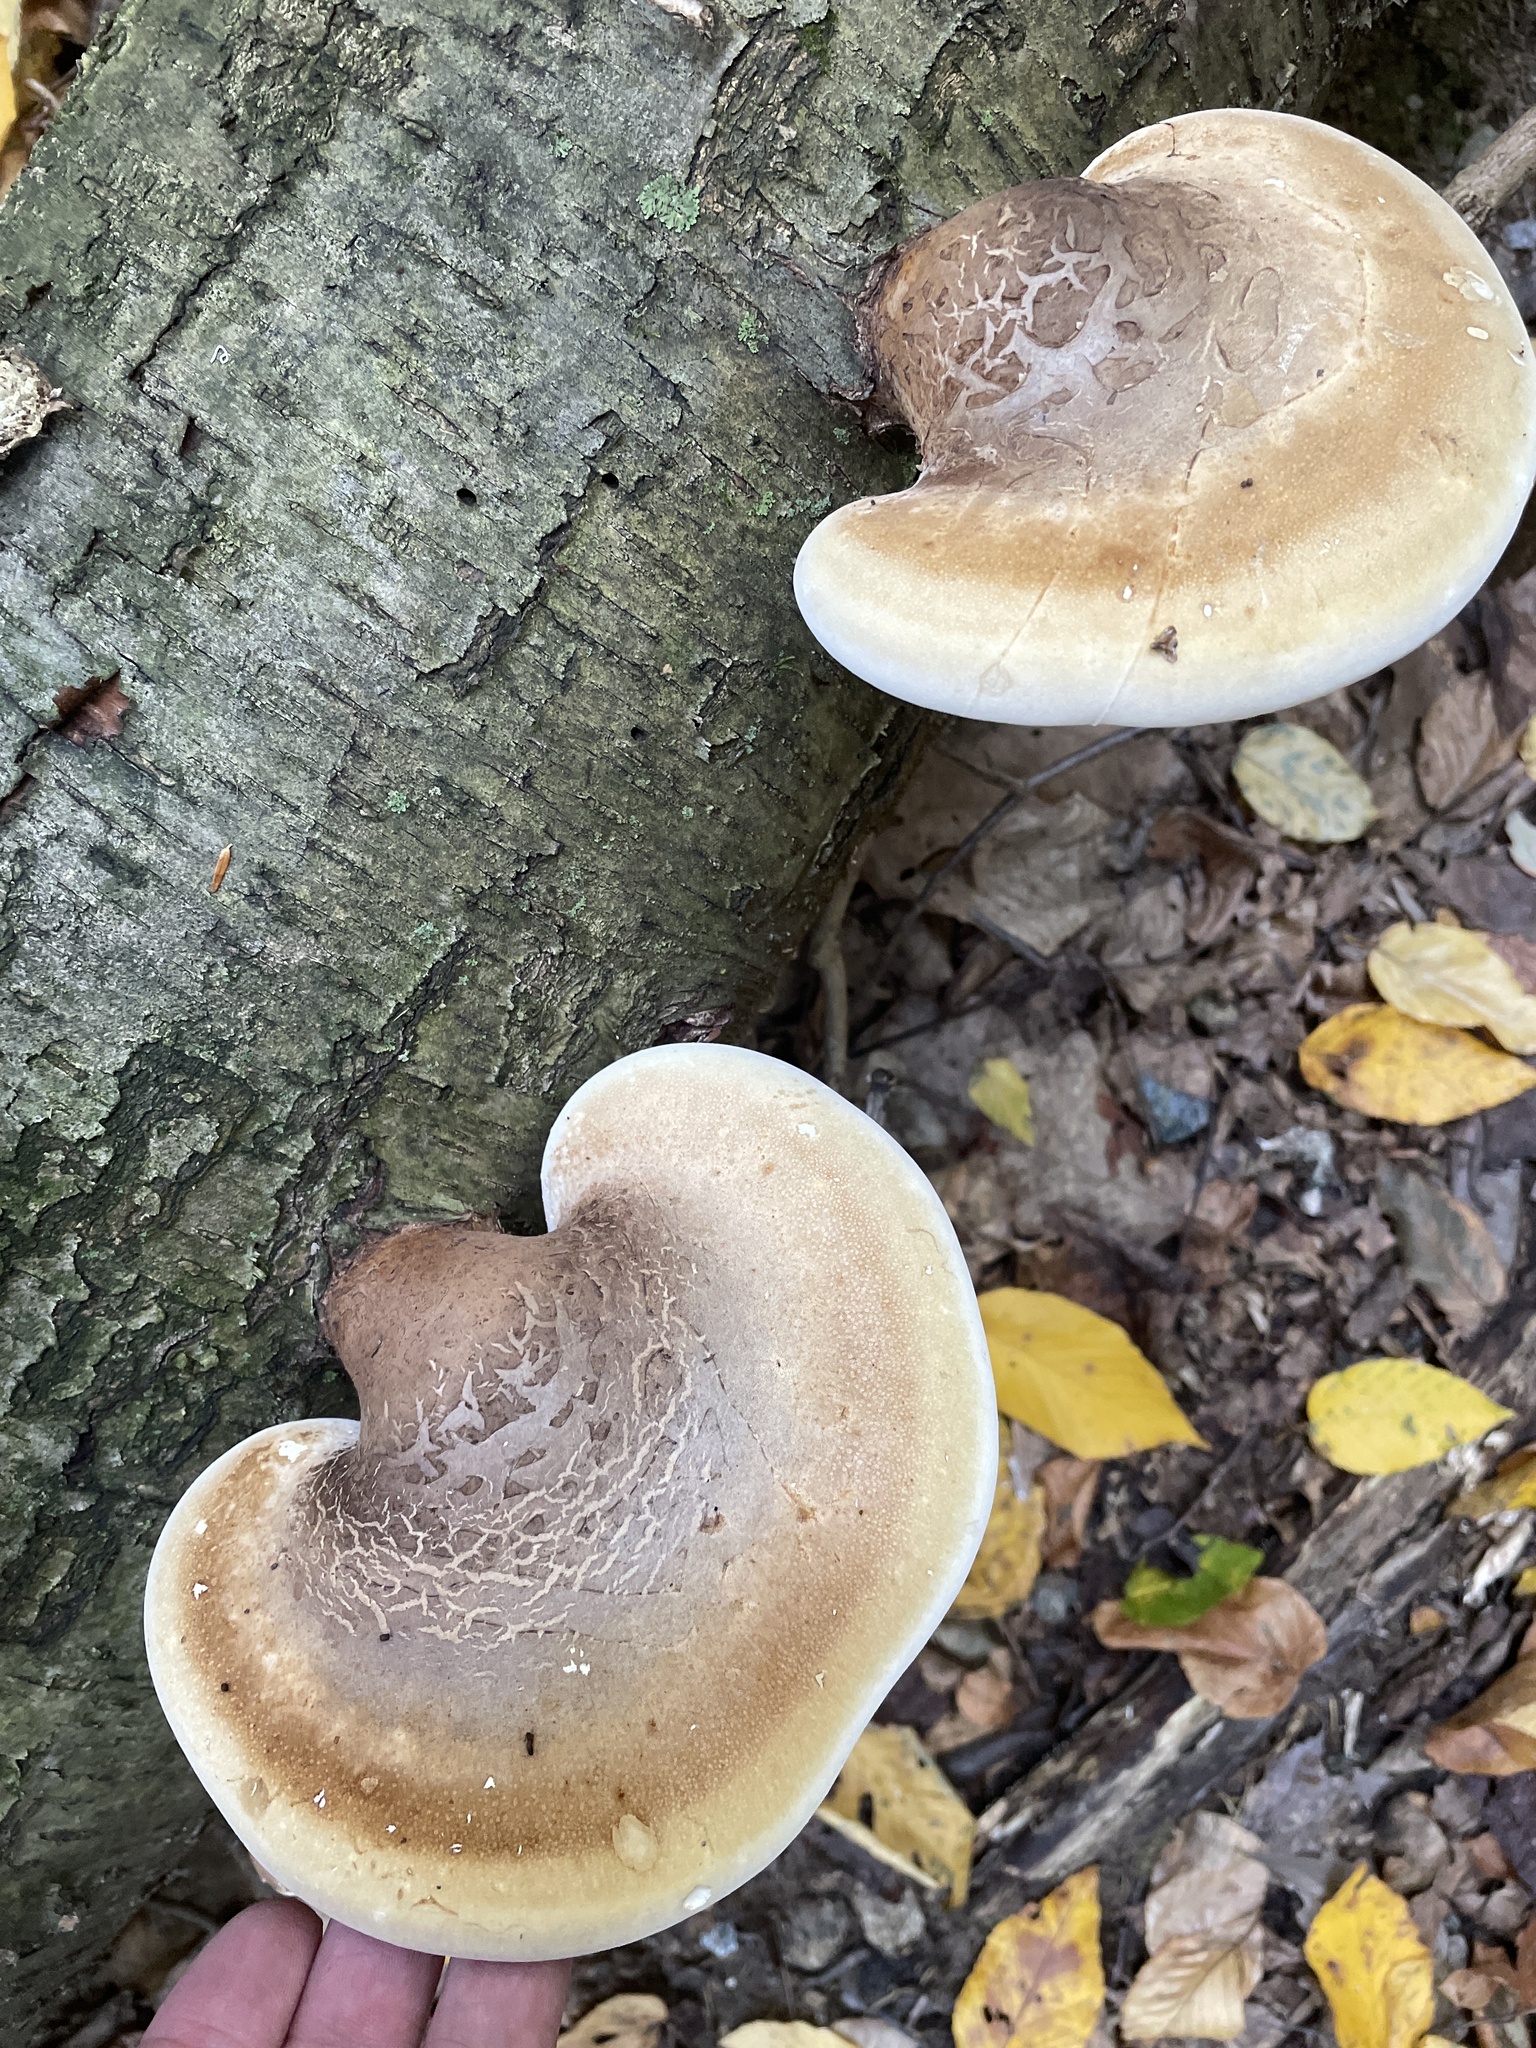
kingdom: Fungi
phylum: Basidiomycota
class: Agaricomycetes
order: Polyporales
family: Fomitopsidaceae
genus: Fomitopsis
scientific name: Fomitopsis betulina
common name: Birch polypore
